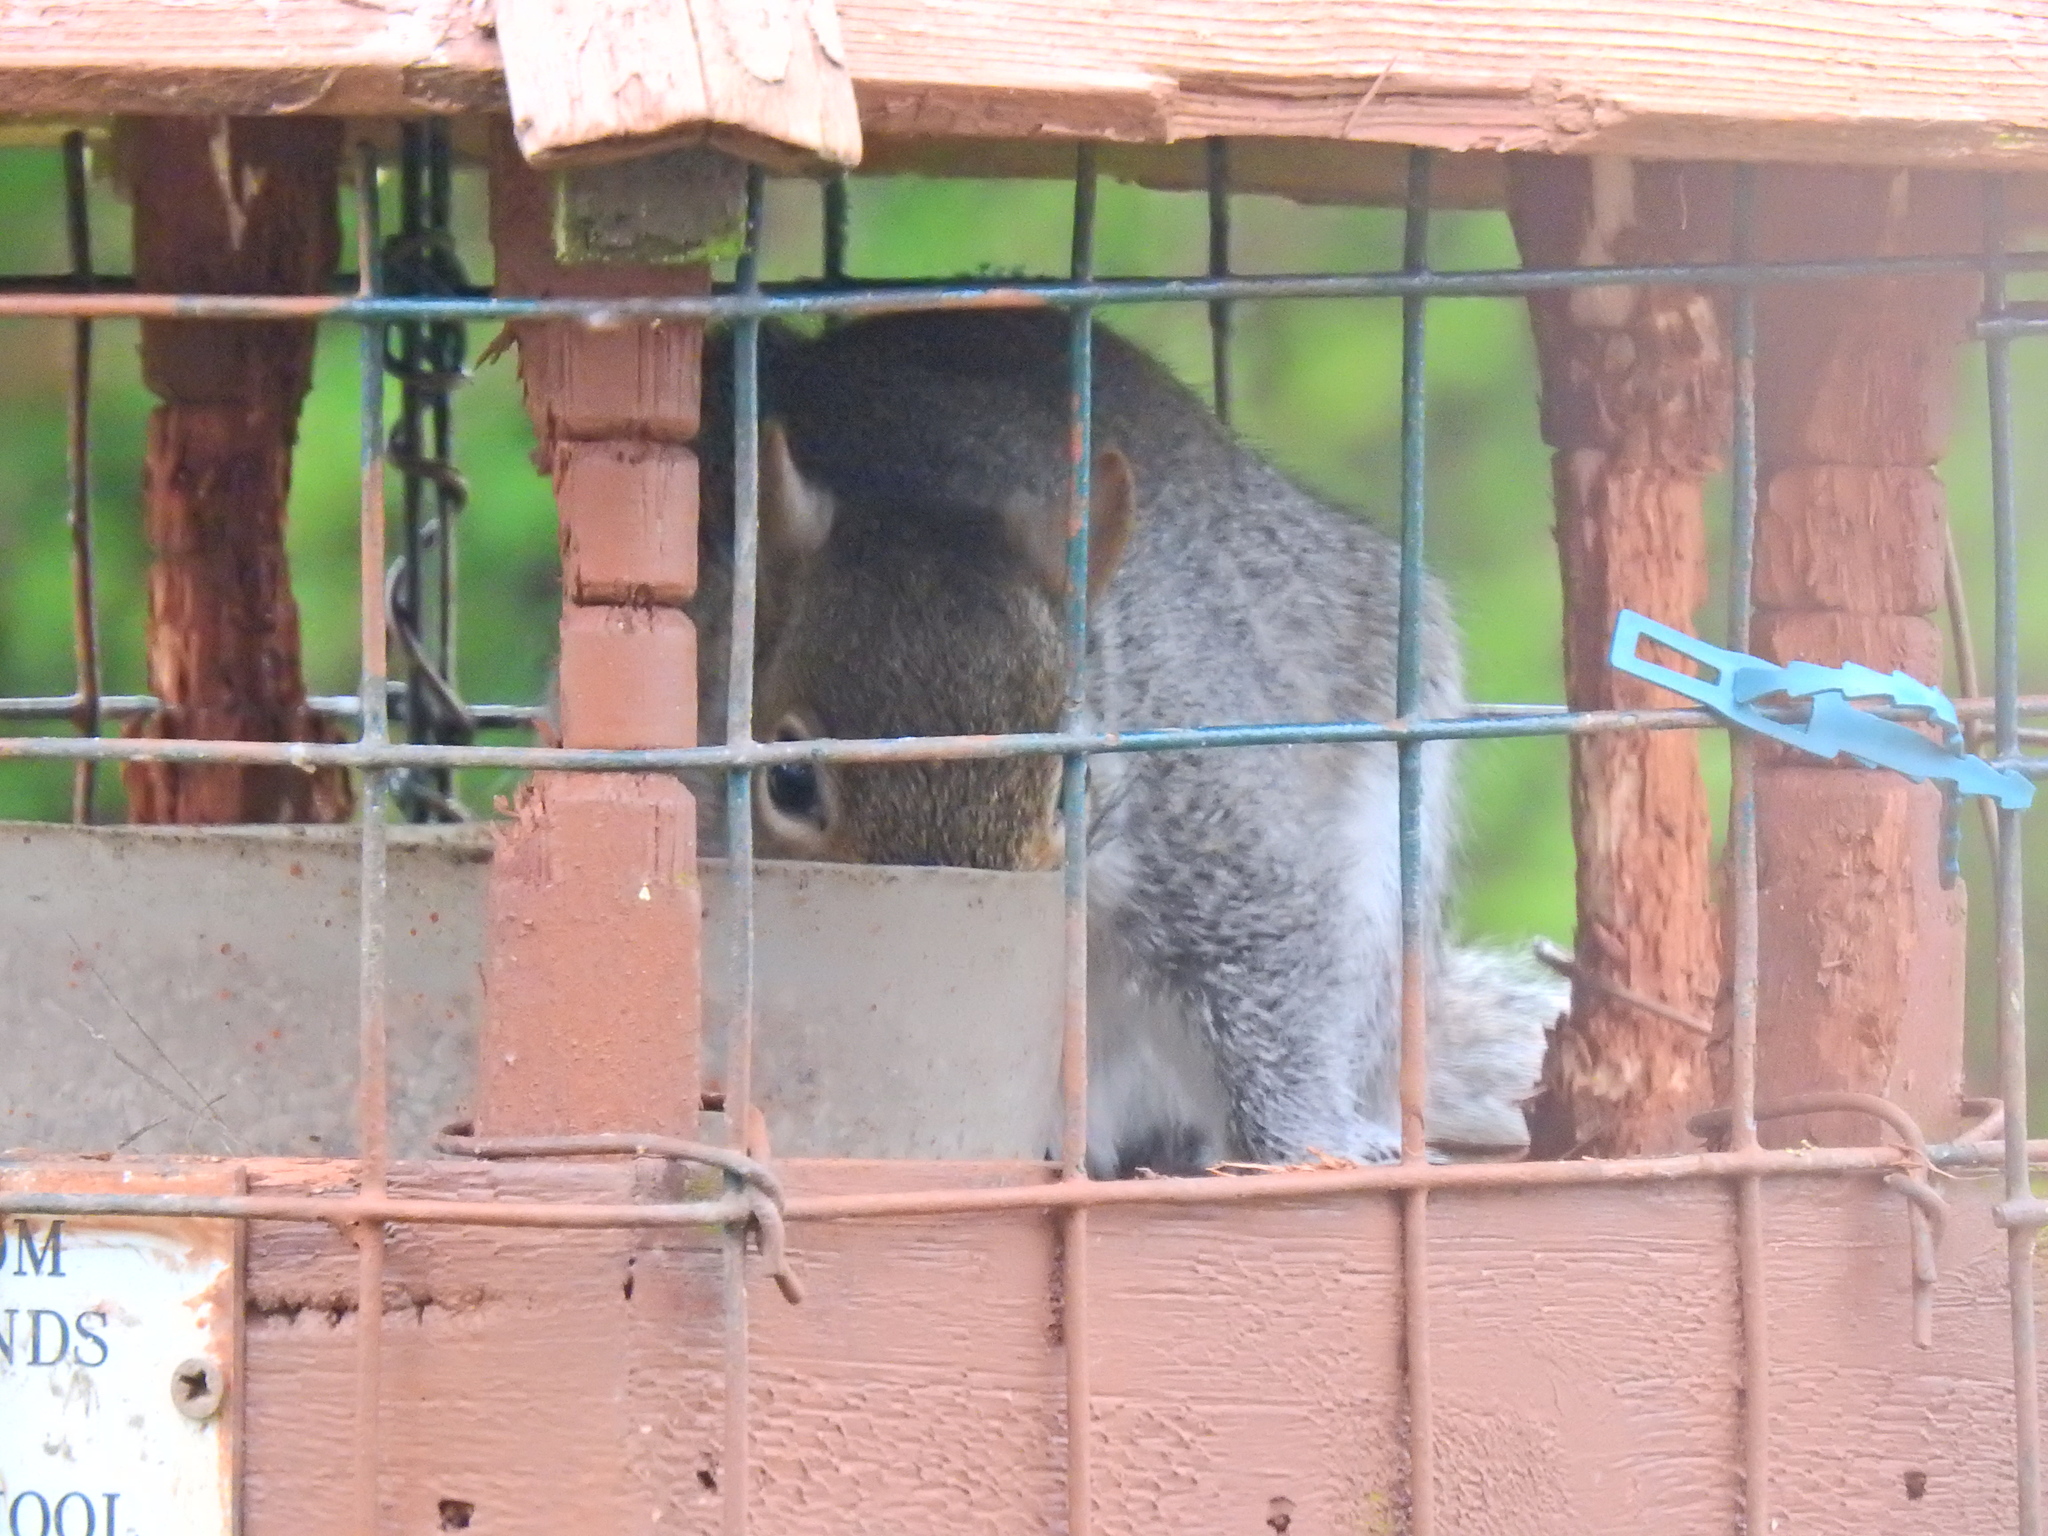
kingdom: Animalia
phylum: Chordata
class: Mammalia
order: Rodentia
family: Sciuridae
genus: Sciurus
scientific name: Sciurus carolinensis
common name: Eastern gray squirrel
